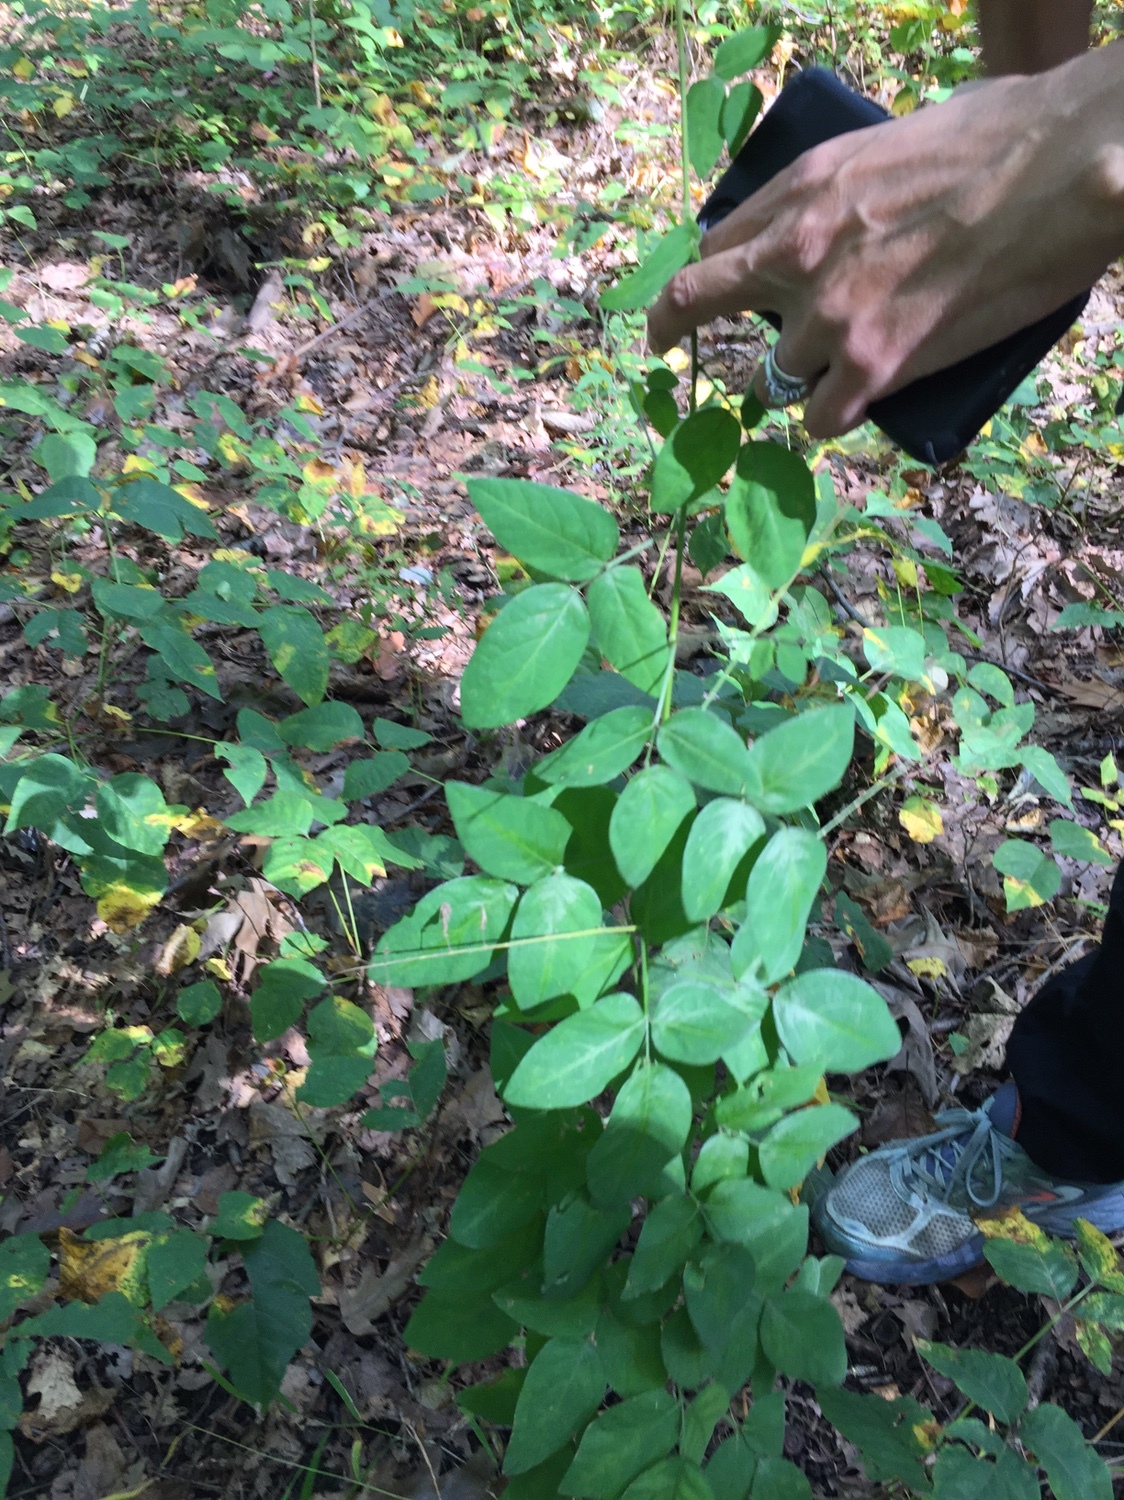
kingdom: Plantae
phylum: Tracheophyta
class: Magnoliopsida
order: Fabales
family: Fabaceae
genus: Desmodium
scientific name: Desmodium perplexum
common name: Perplexed tick trefoil
